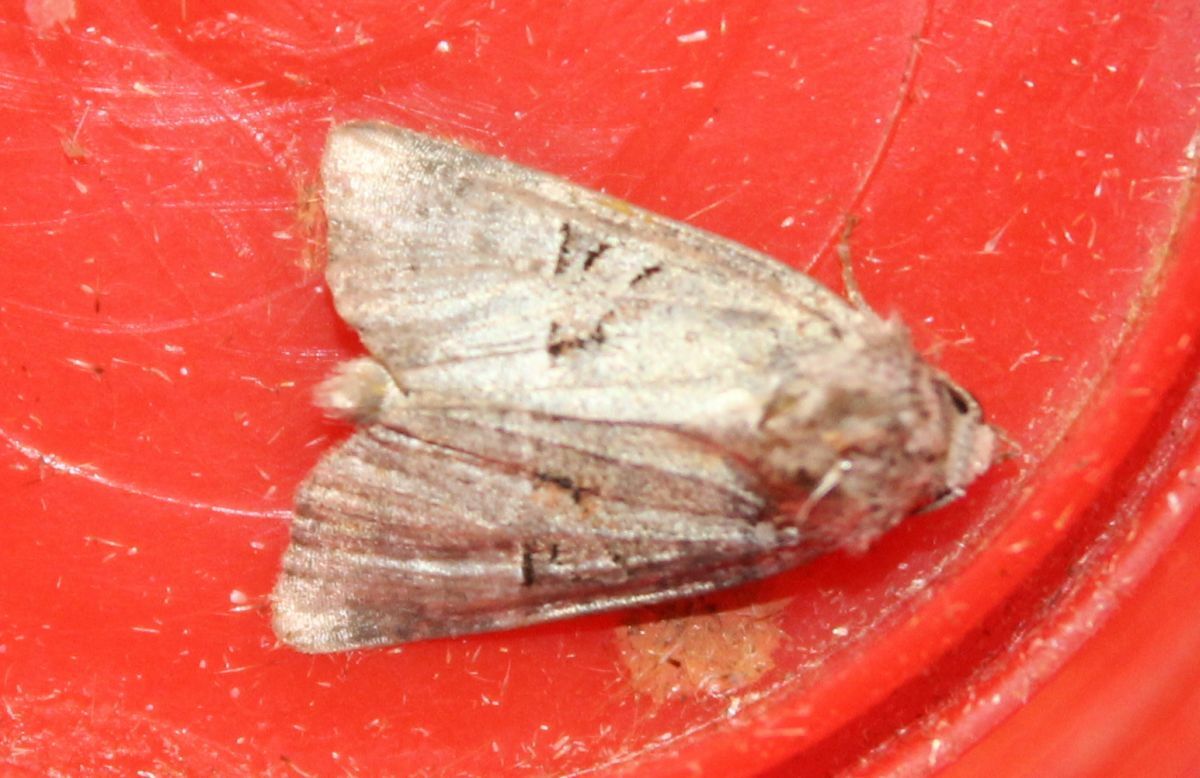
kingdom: Animalia
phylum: Arthropoda
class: Insecta
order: Lepidoptera
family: Noctuidae
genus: Litoligia
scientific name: Litoligia literosa
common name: Rosy minor
